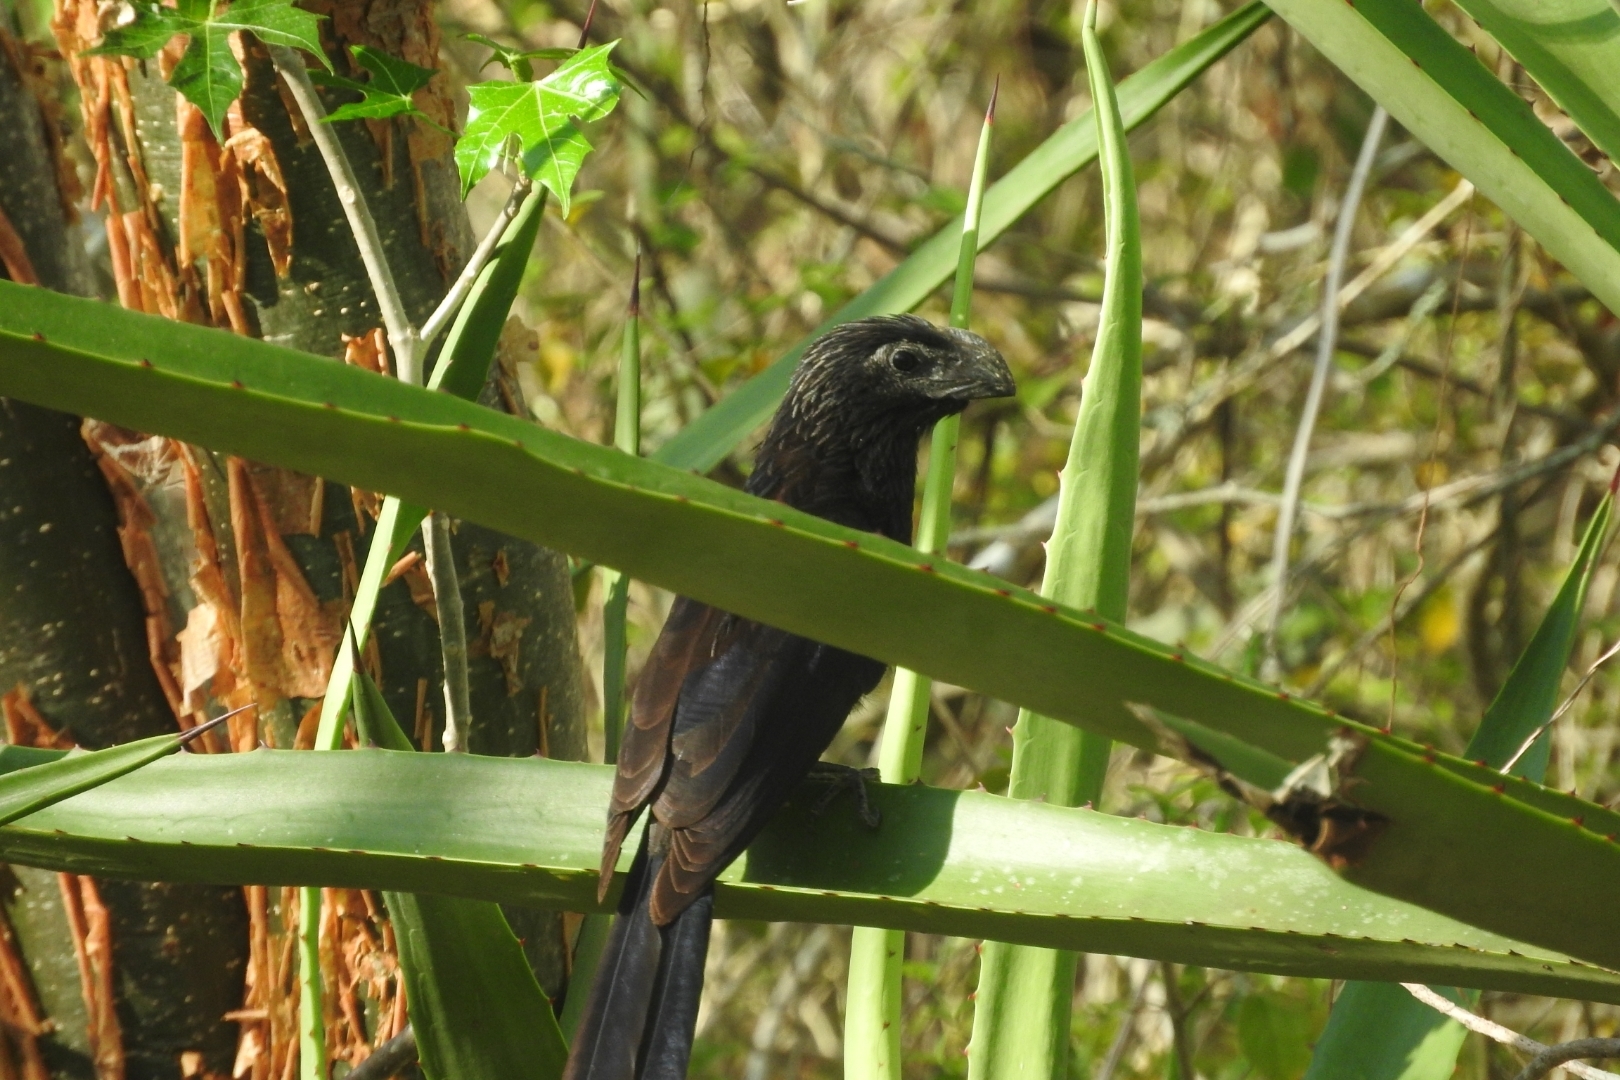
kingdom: Animalia
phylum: Chordata
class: Aves
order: Cuculiformes
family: Cuculidae
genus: Crotophaga
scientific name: Crotophaga sulcirostris
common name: Groove-billed ani
